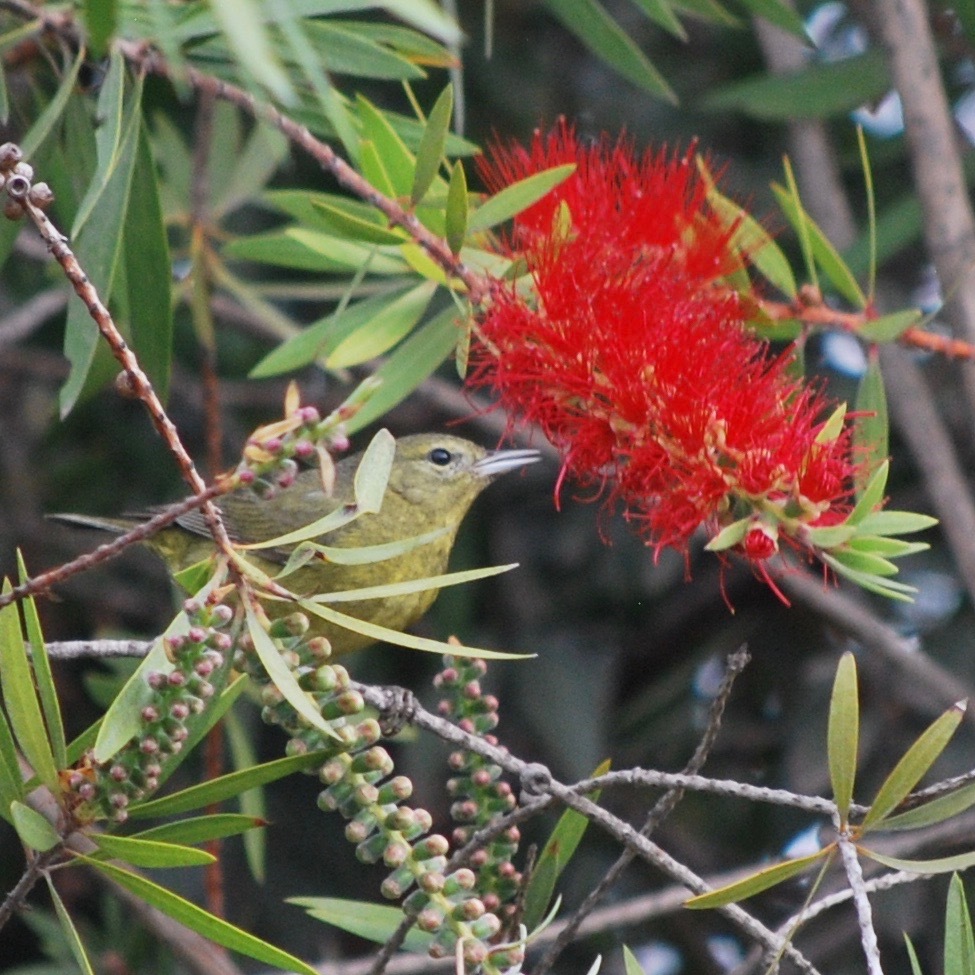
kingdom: Animalia
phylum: Chordata
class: Aves
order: Passeriformes
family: Parulidae
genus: Leiothlypis
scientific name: Leiothlypis celata
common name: Orange-crowned warbler
